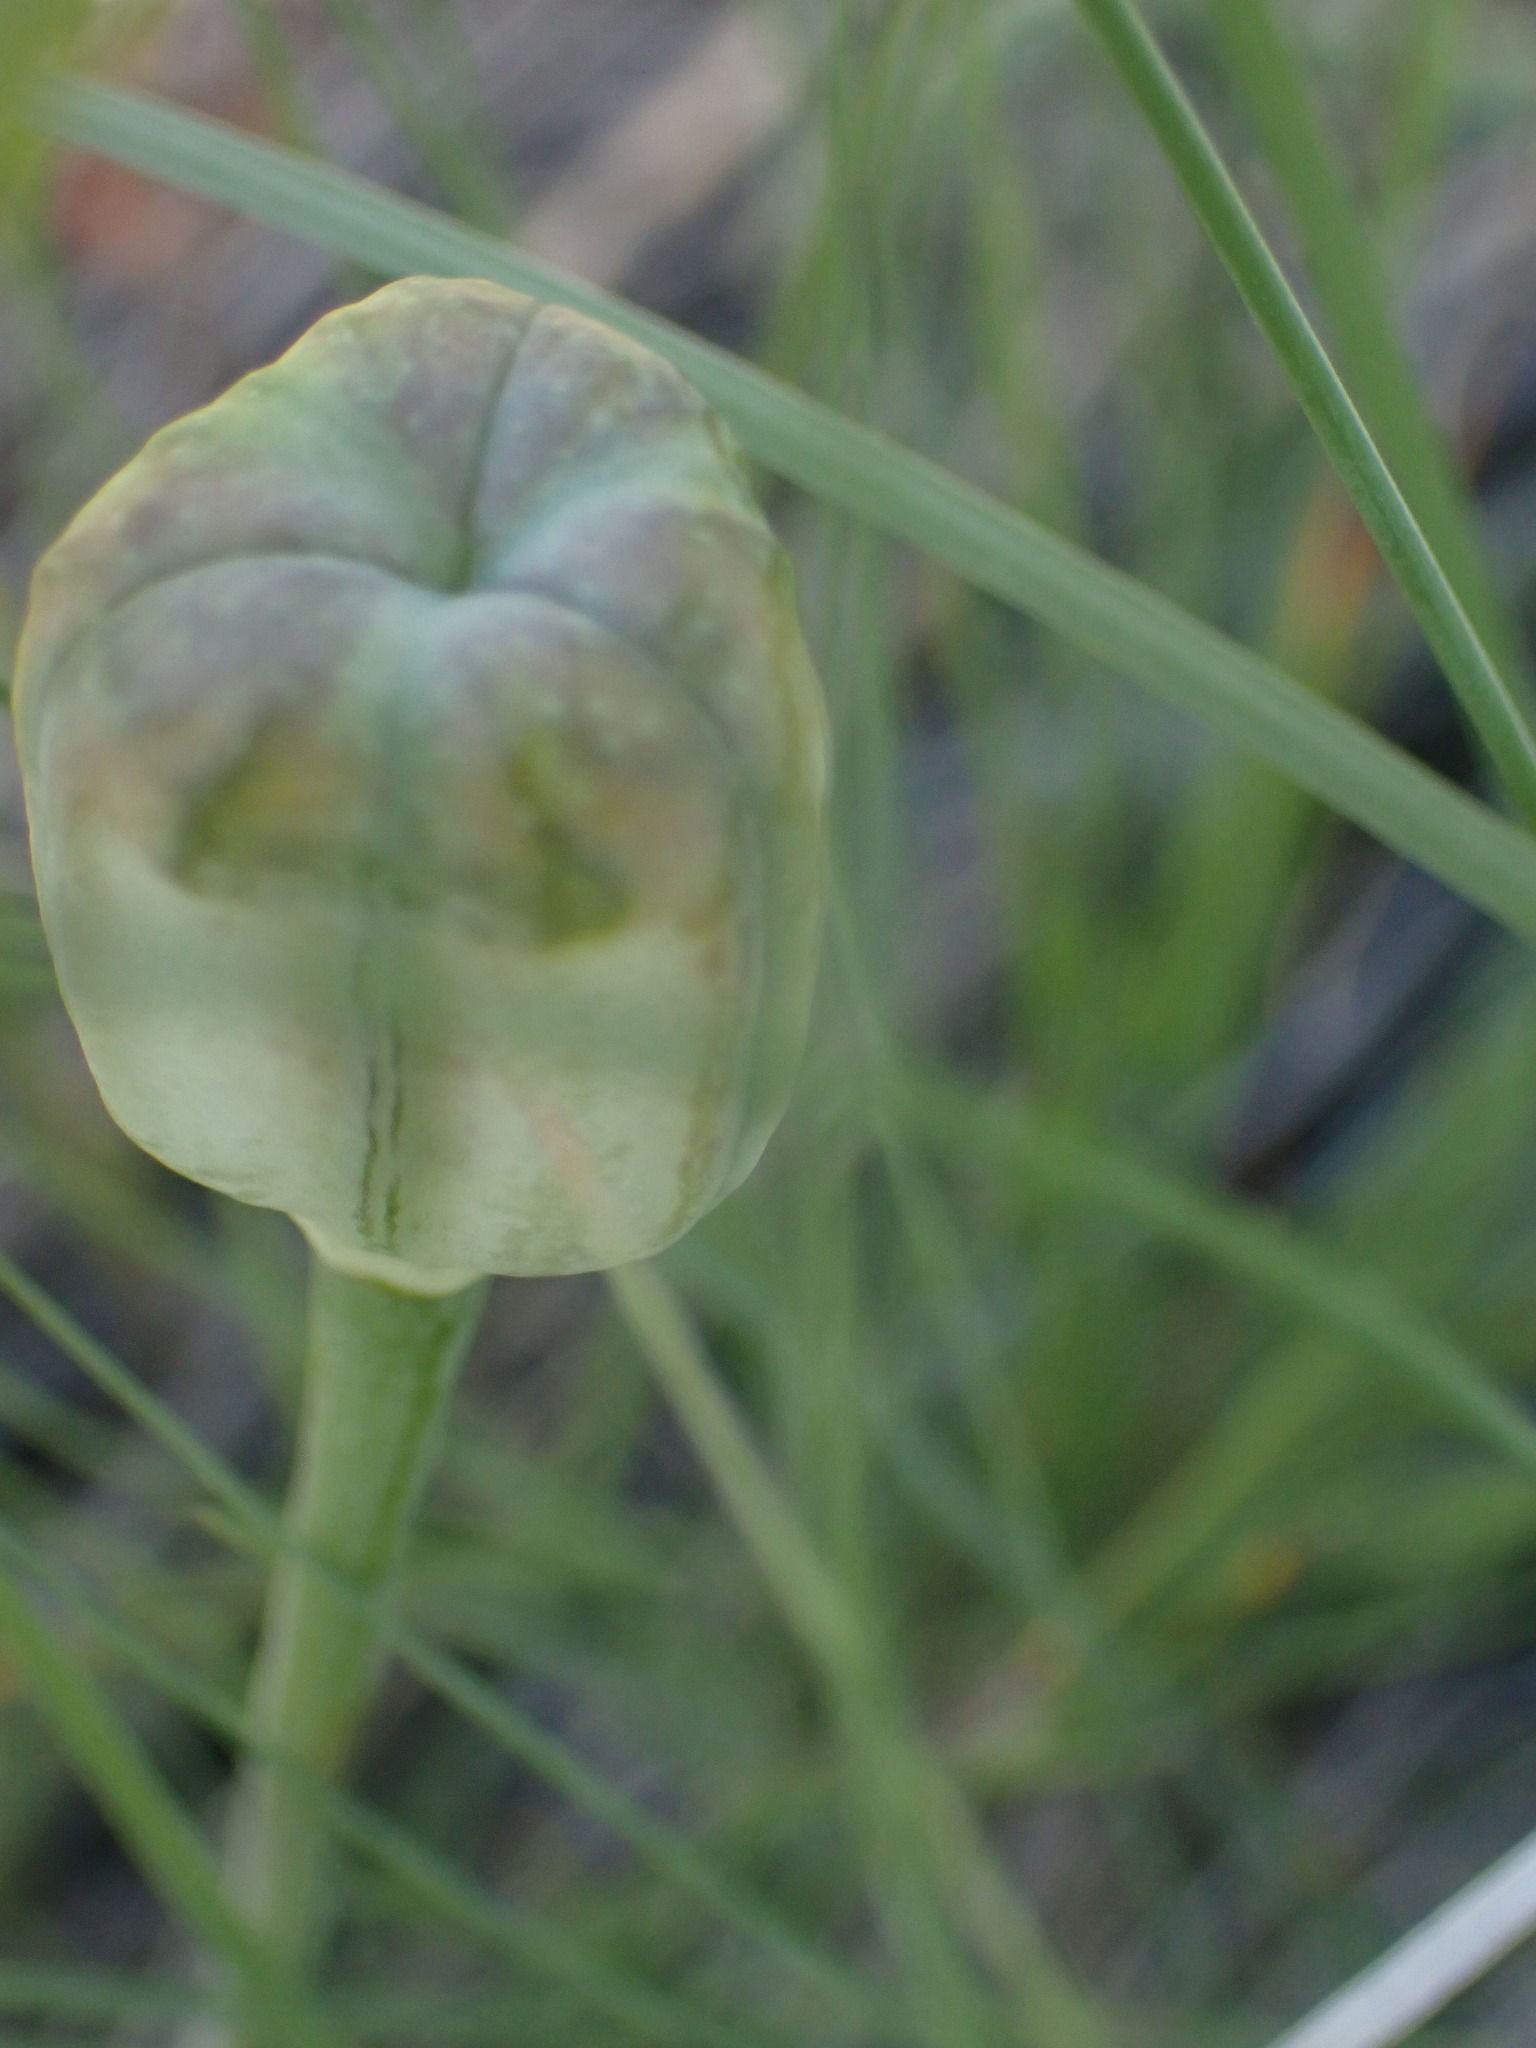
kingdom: Plantae
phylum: Tracheophyta
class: Liliopsida
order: Liliales
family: Liliaceae
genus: Fritillaria
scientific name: Fritillaria pudica
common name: Yellow fritillary
